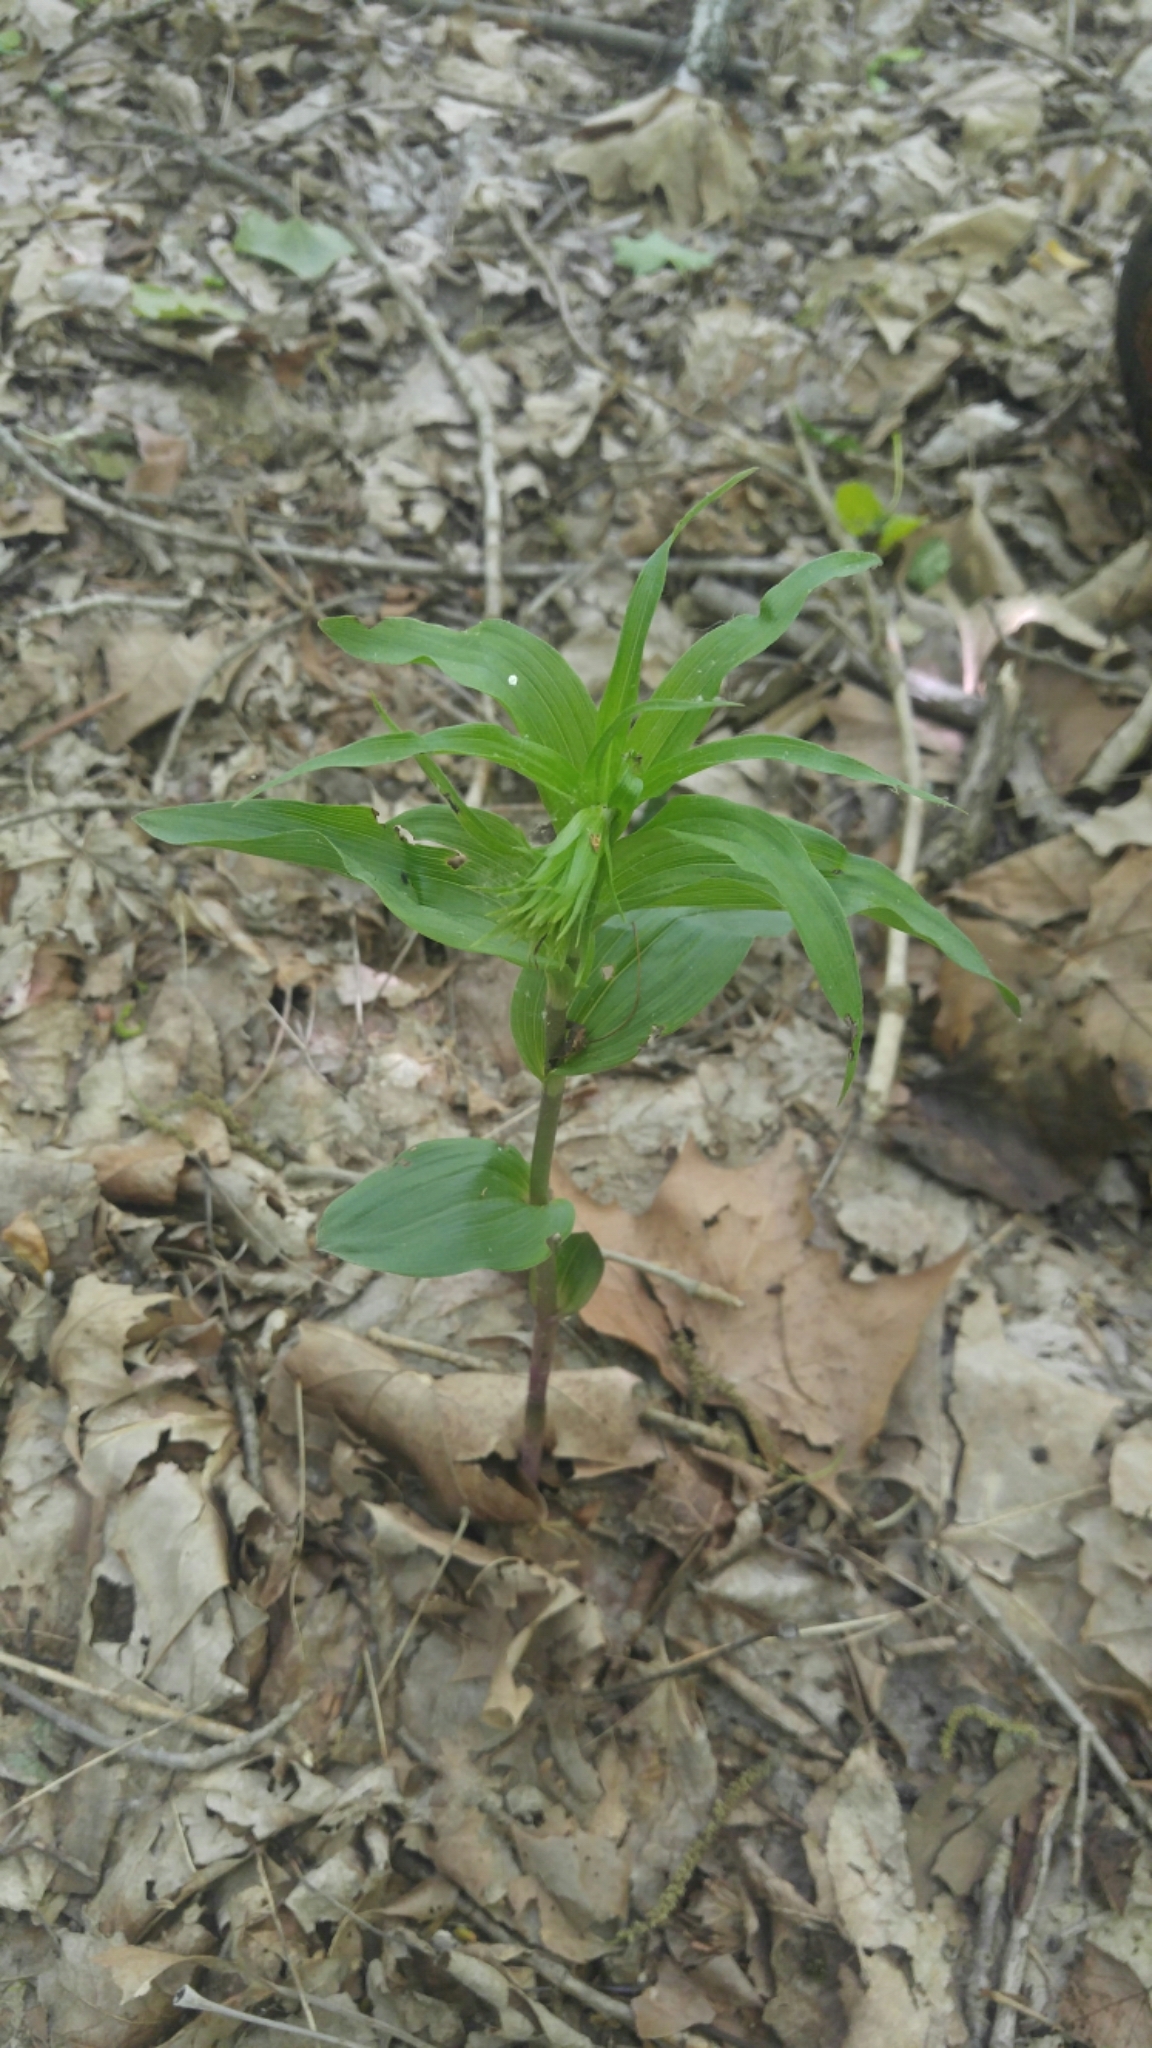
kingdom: Plantae
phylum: Tracheophyta
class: Liliopsida
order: Asparagales
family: Orchidaceae
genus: Epipactis
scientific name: Epipactis helleborine
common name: Broad-leaved helleborine
